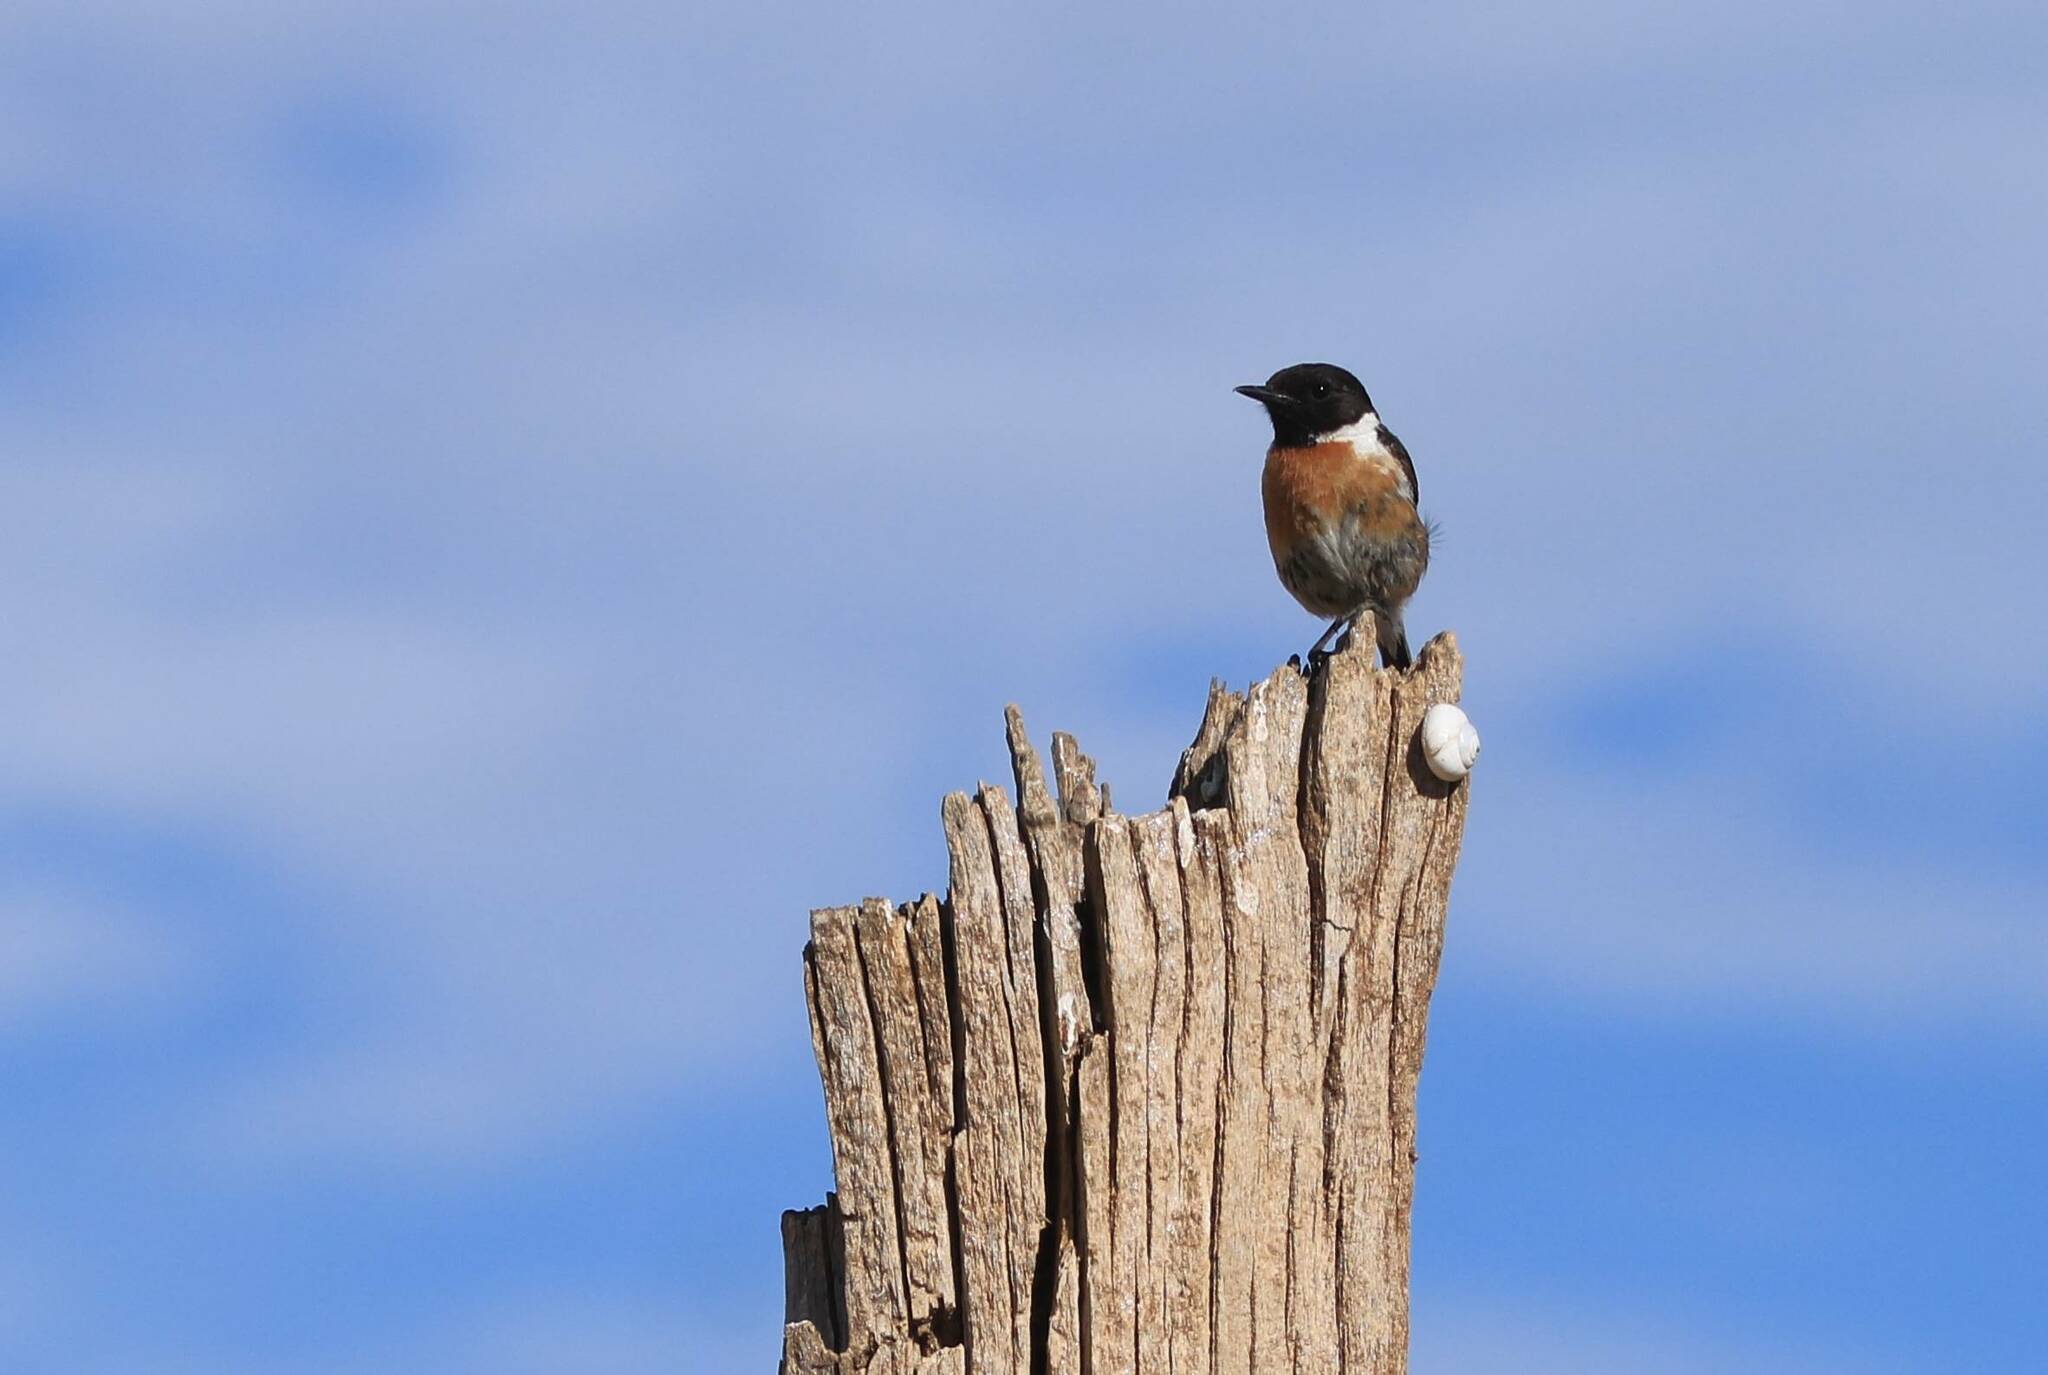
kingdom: Animalia
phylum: Chordata
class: Aves
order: Passeriformes
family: Muscicapidae
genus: Saxicola
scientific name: Saxicola rubicola
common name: European stonechat
